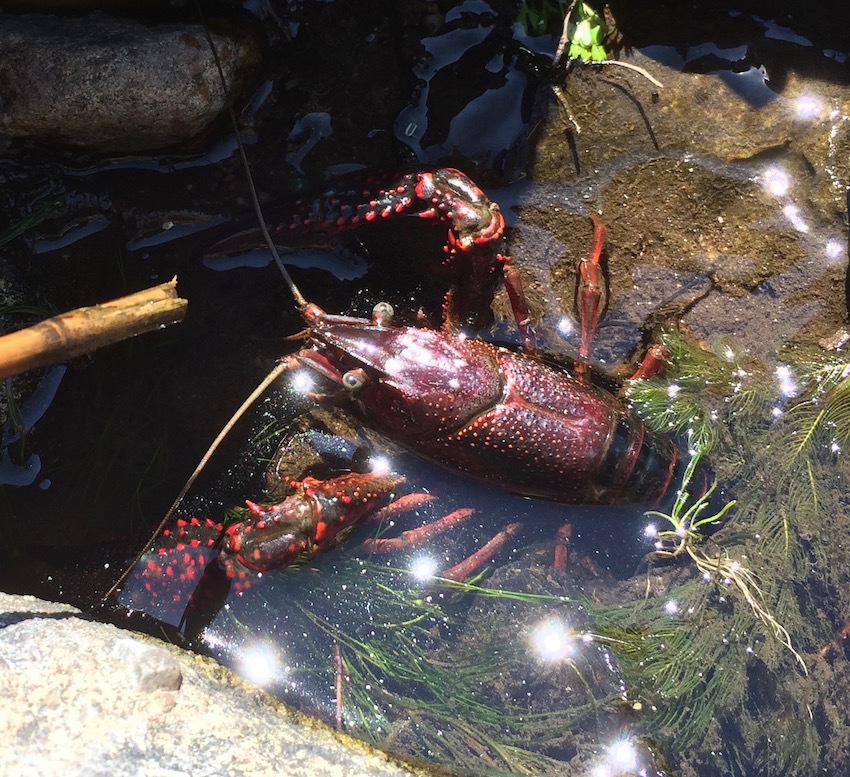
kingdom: Animalia
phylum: Arthropoda
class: Malacostraca
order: Decapoda
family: Cambaridae
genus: Procambarus
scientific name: Procambarus clarkii
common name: Red swamp crayfish
